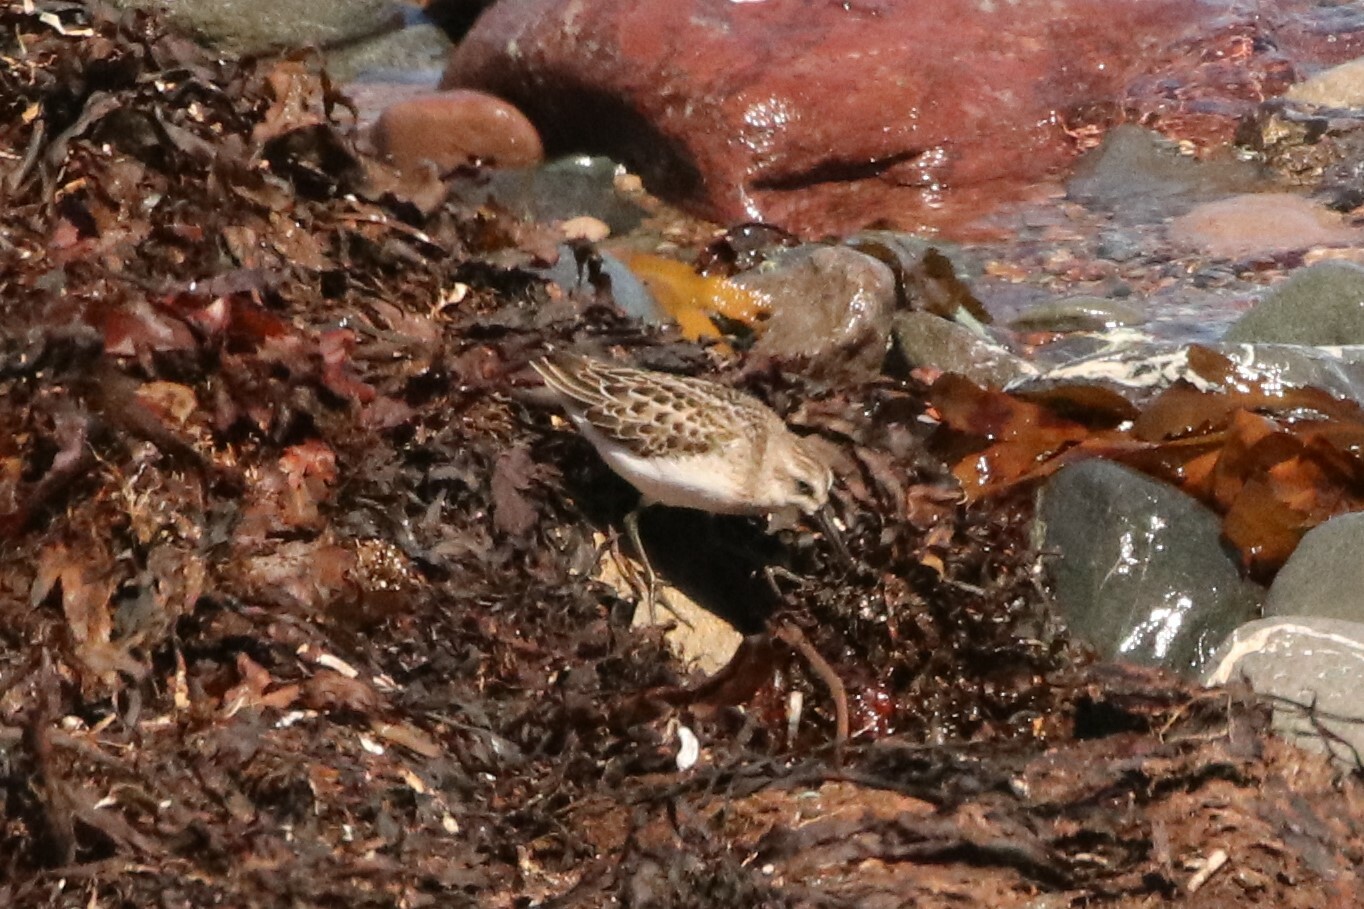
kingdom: Animalia
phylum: Chordata
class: Aves
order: Charadriiformes
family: Scolopacidae
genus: Calidris
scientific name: Calidris pusilla
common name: Semipalmated sandpiper
